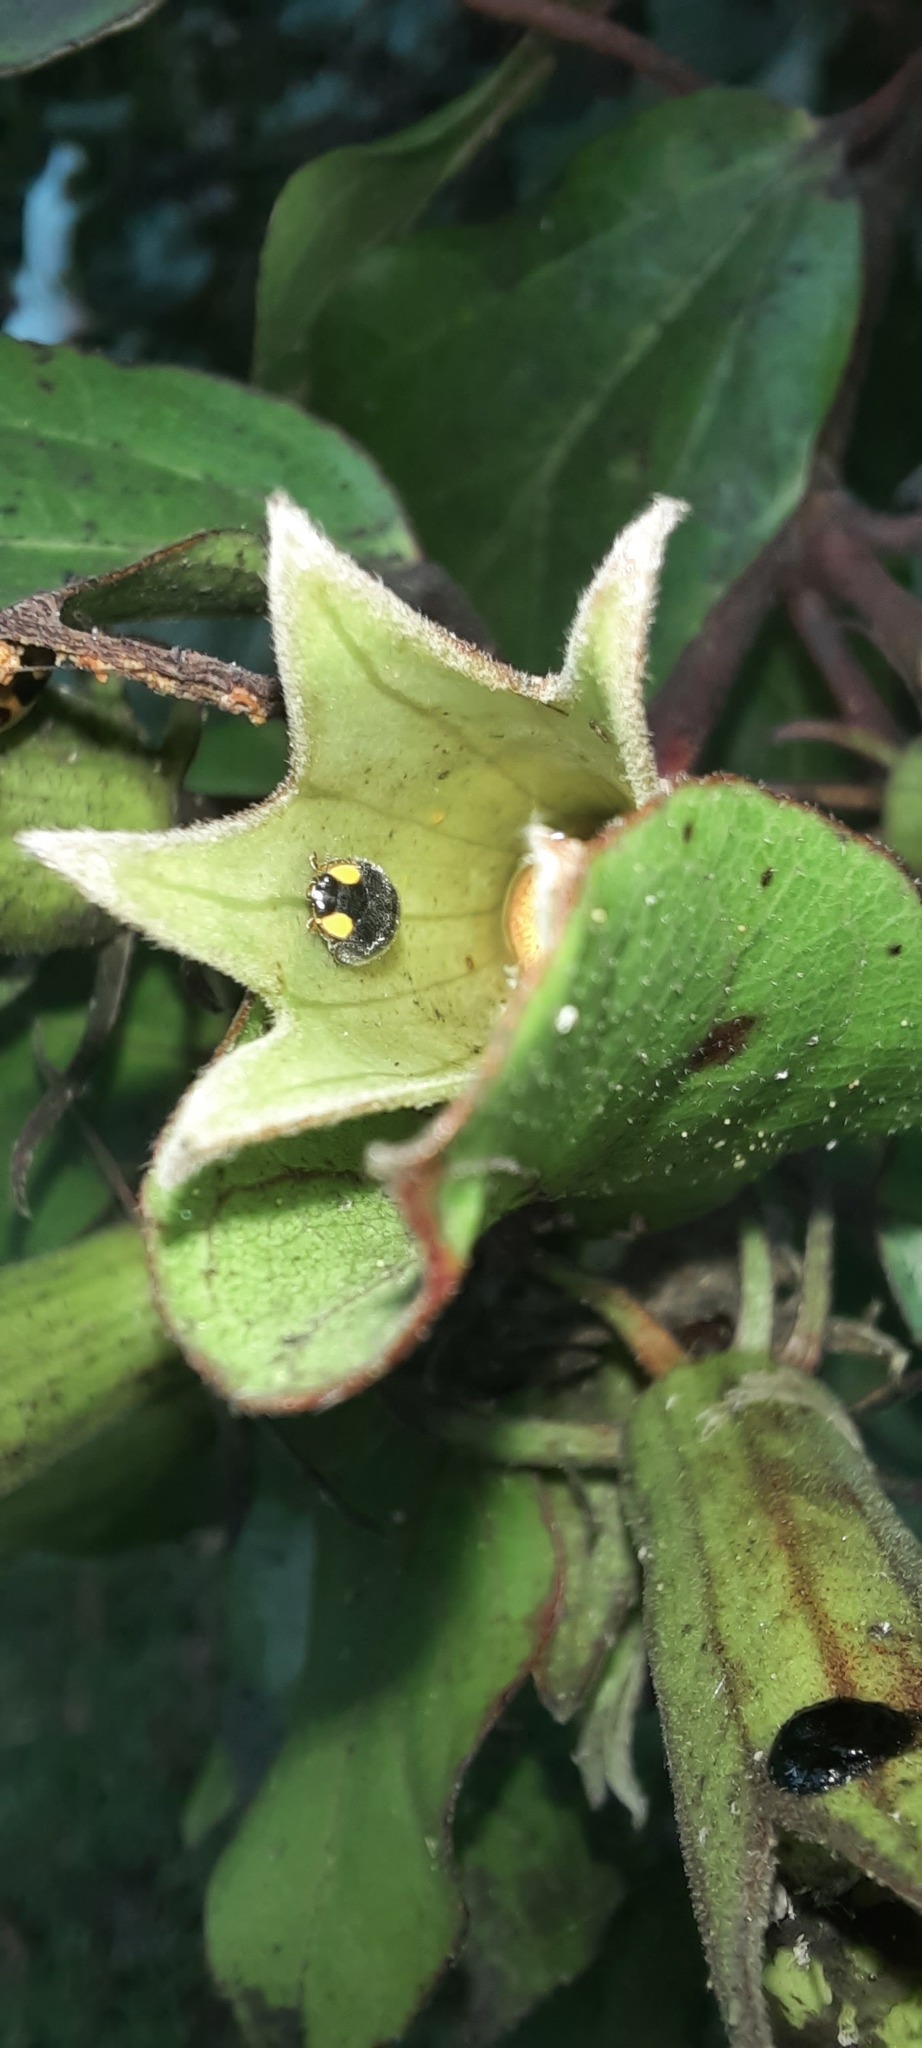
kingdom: Animalia
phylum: Arthropoda
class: Insecta
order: Coleoptera
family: Coccinellidae
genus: Scymnodes
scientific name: Scymnodes lividigaster
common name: Yellowshouldered lady beetle
